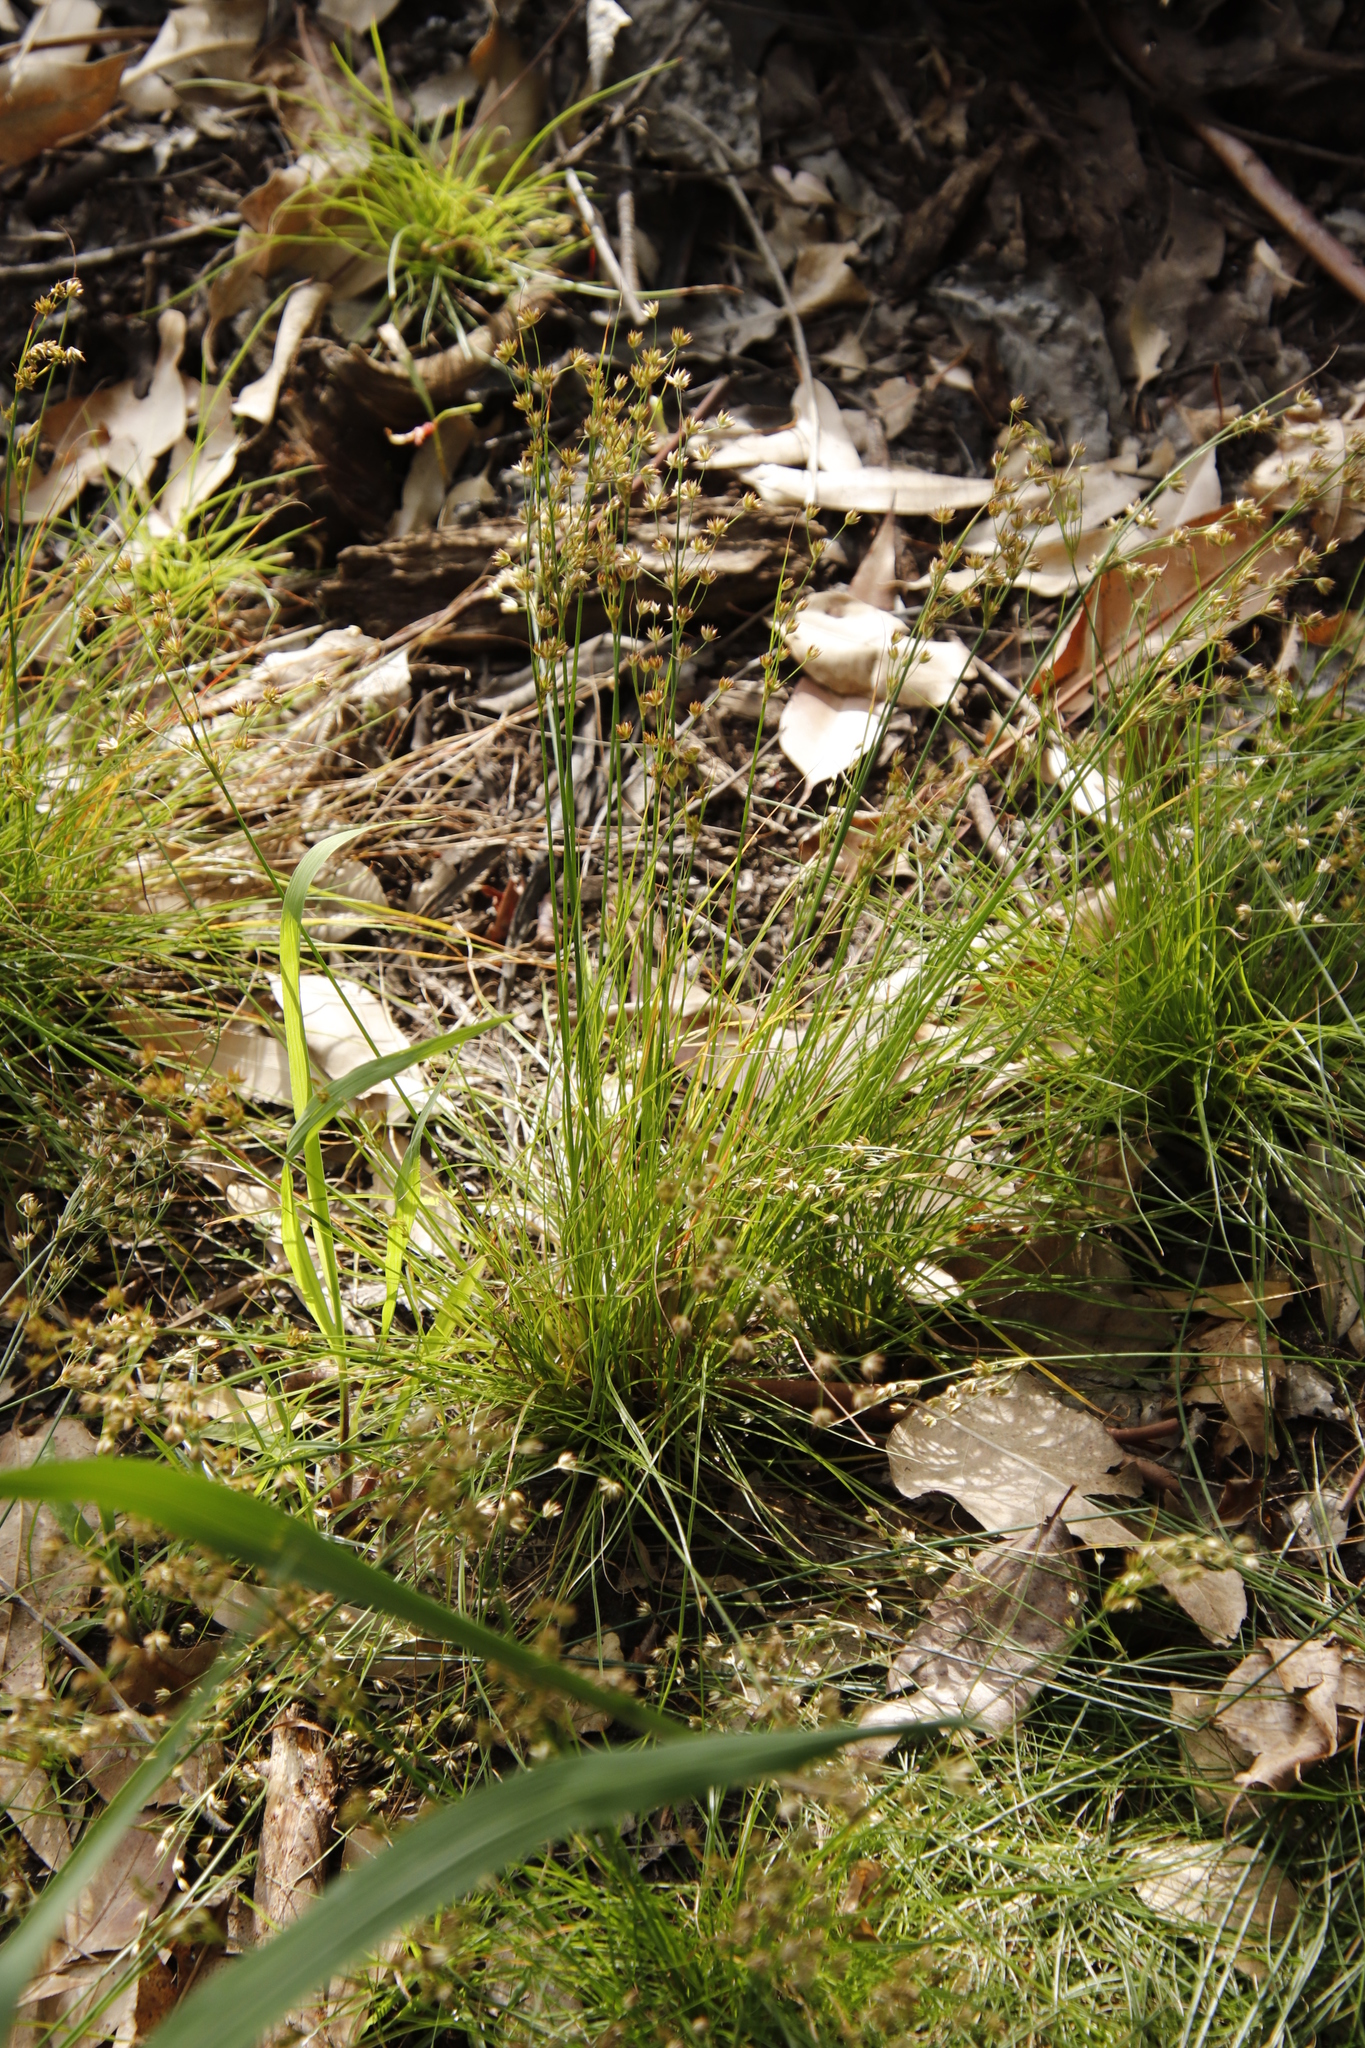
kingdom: Plantae
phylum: Tracheophyta
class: Liliopsida
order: Poales
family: Juncaceae
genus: Juncus
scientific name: Juncus capensis
